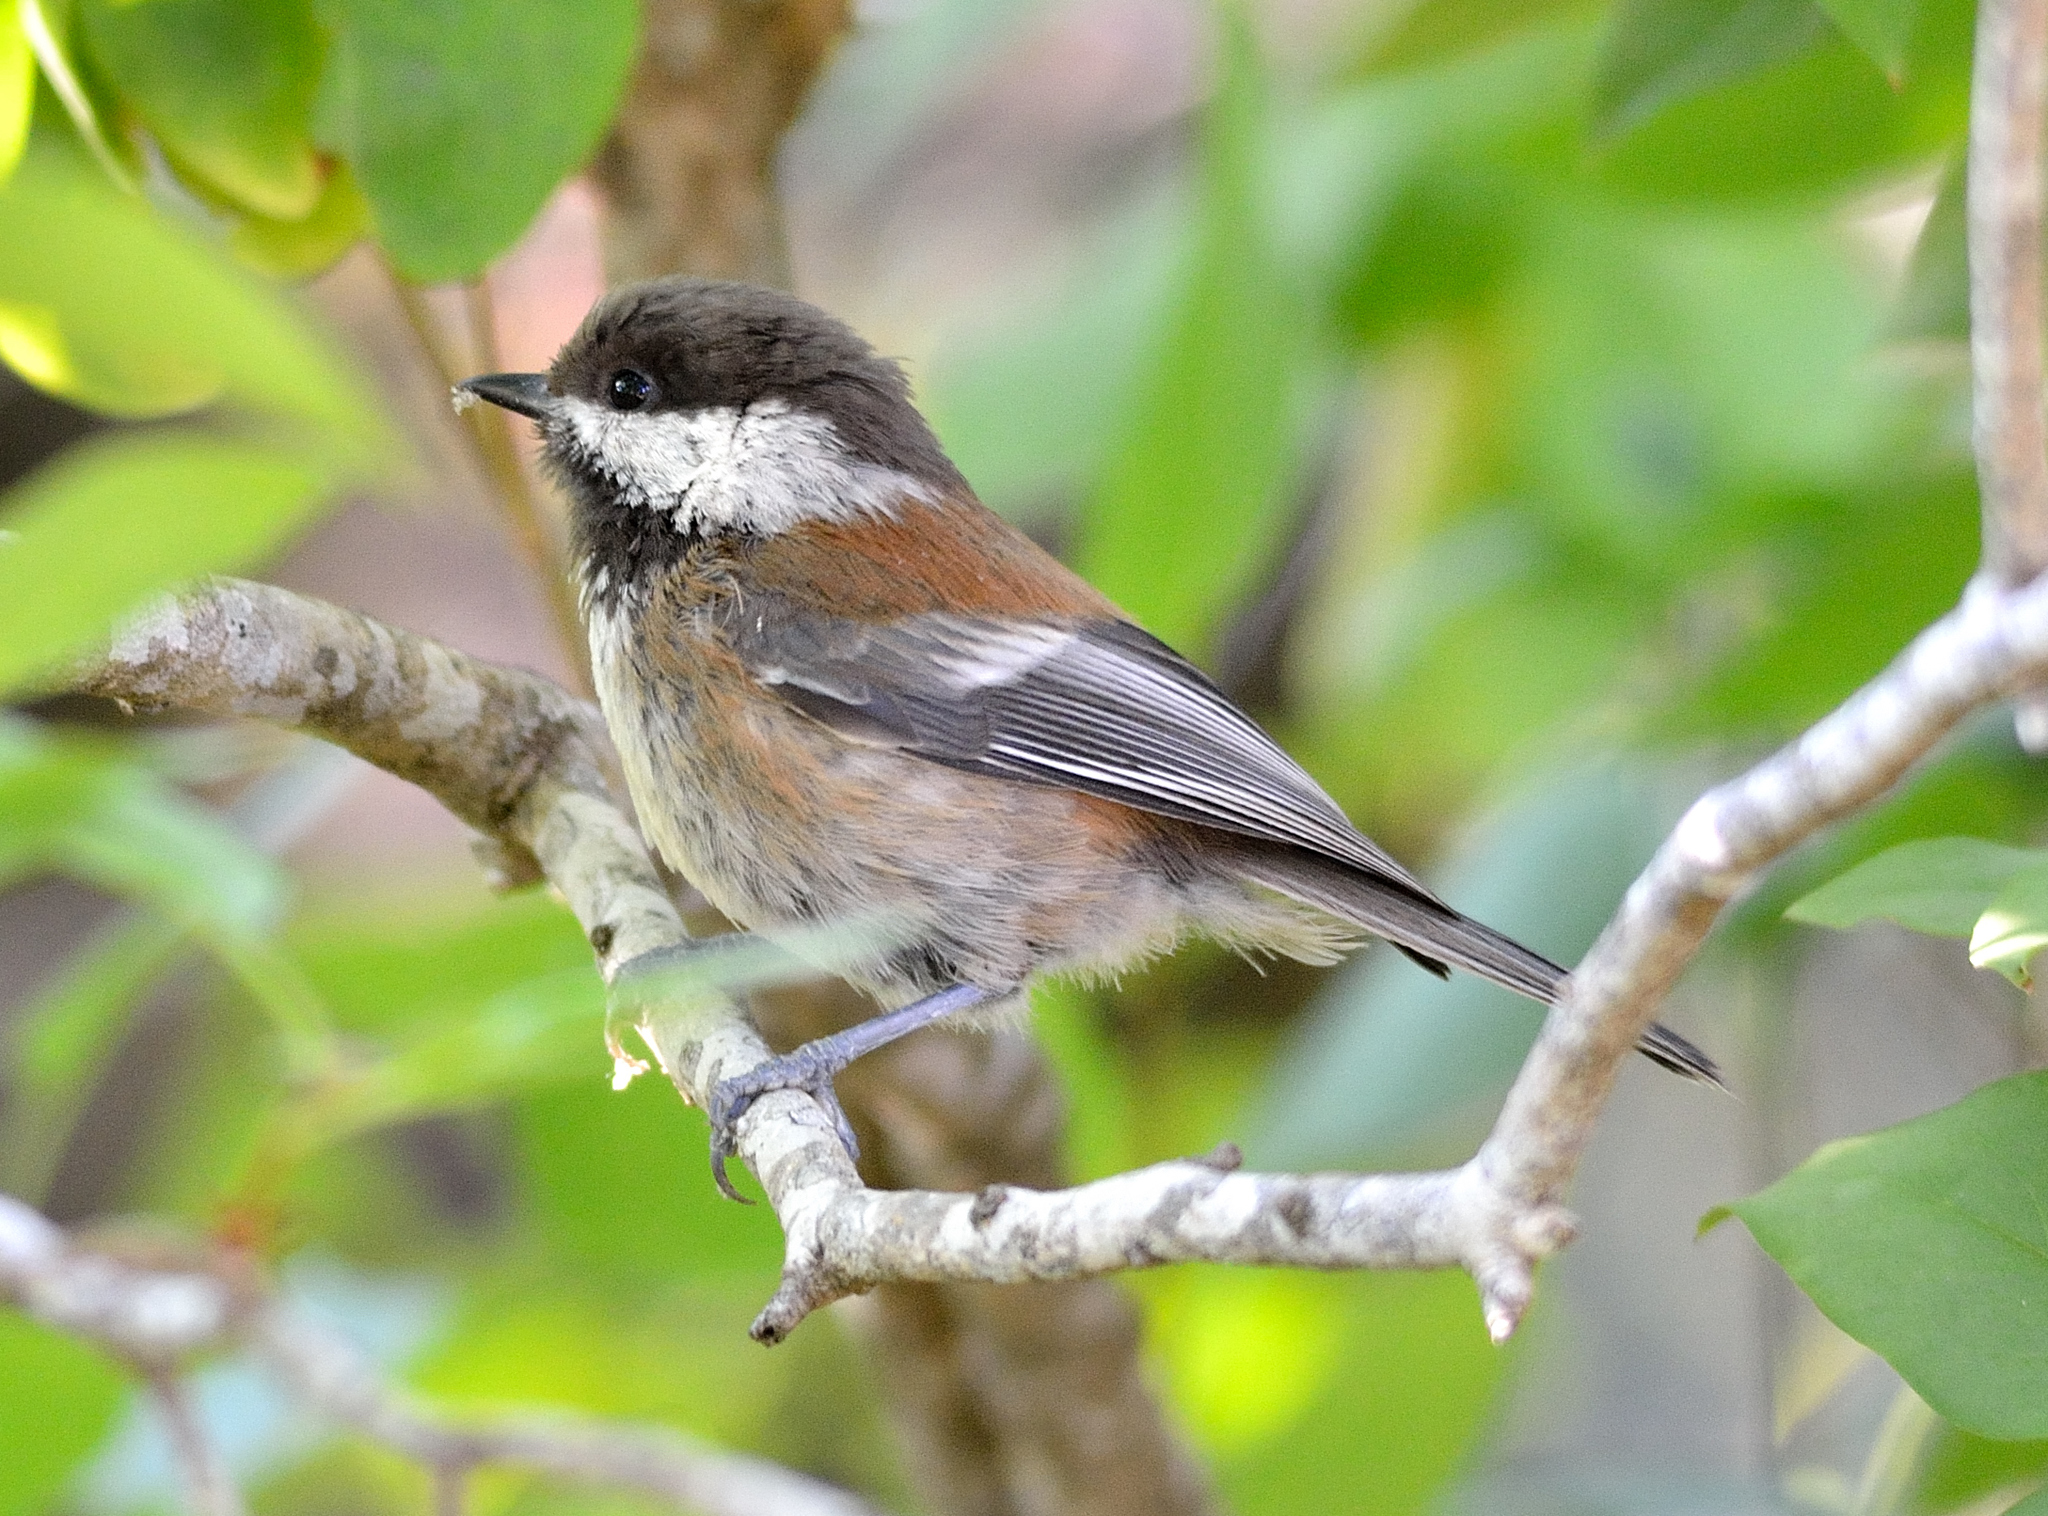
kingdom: Animalia
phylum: Chordata
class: Aves
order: Passeriformes
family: Paridae
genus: Poecile
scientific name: Poecile rufescens
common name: Chestnut-backed chickadee
